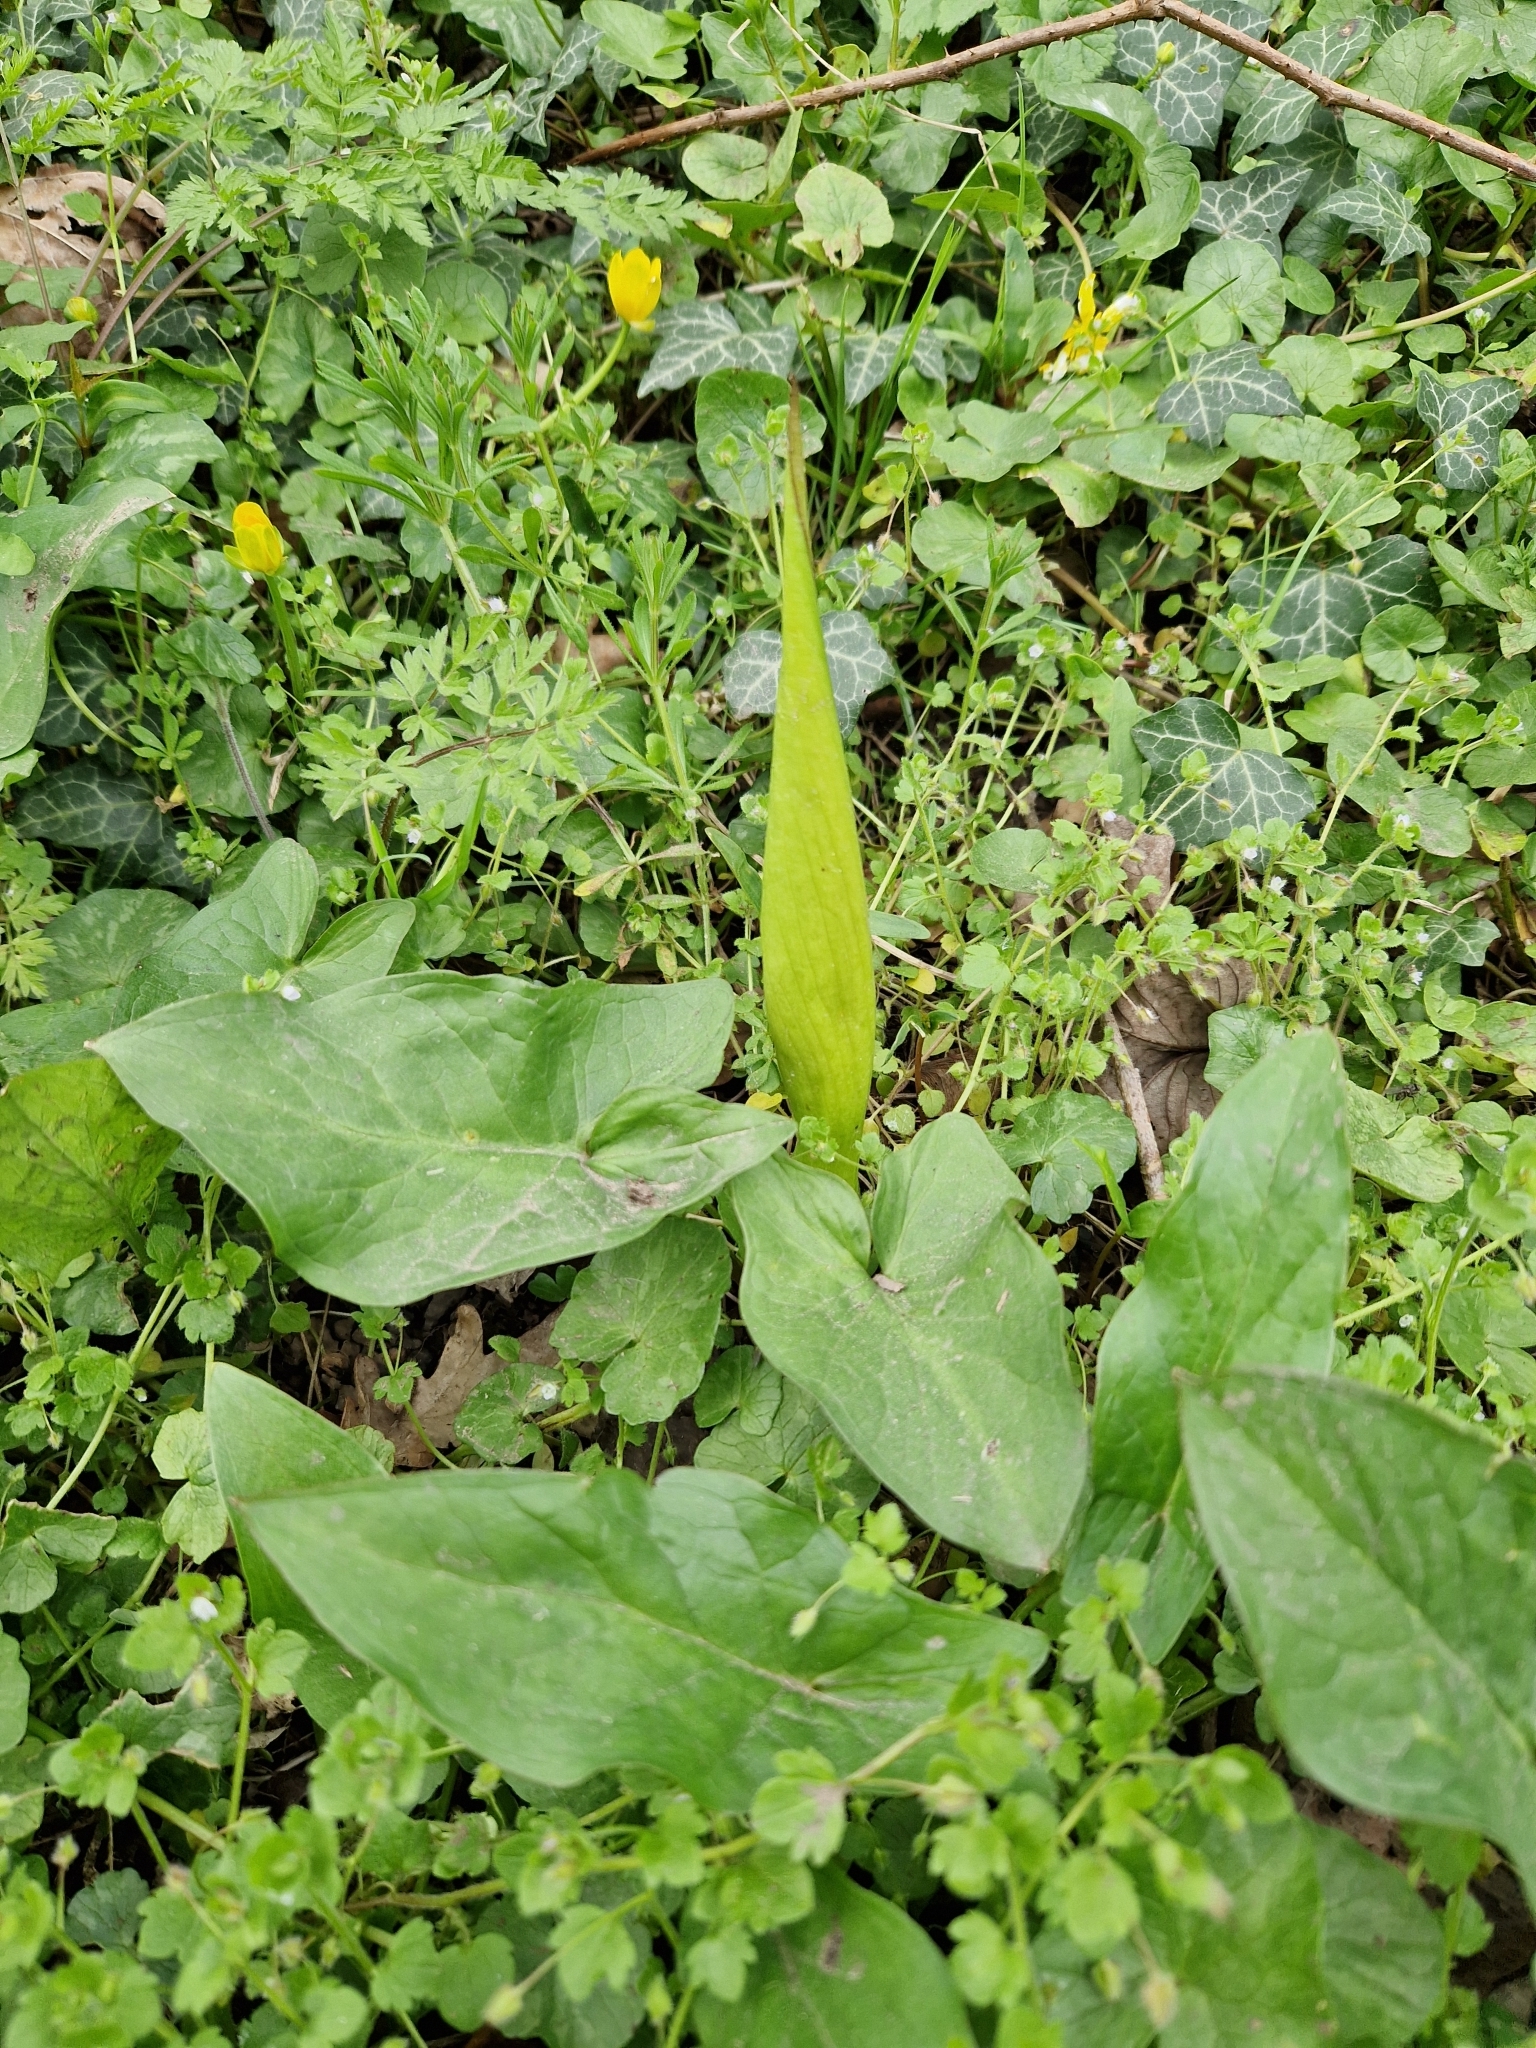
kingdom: Plantae
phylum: Tracheophyta
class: Liliopsida
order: Alismatales
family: Araceae
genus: Arum
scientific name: Arum maculatum
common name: Lords-and-ladies
